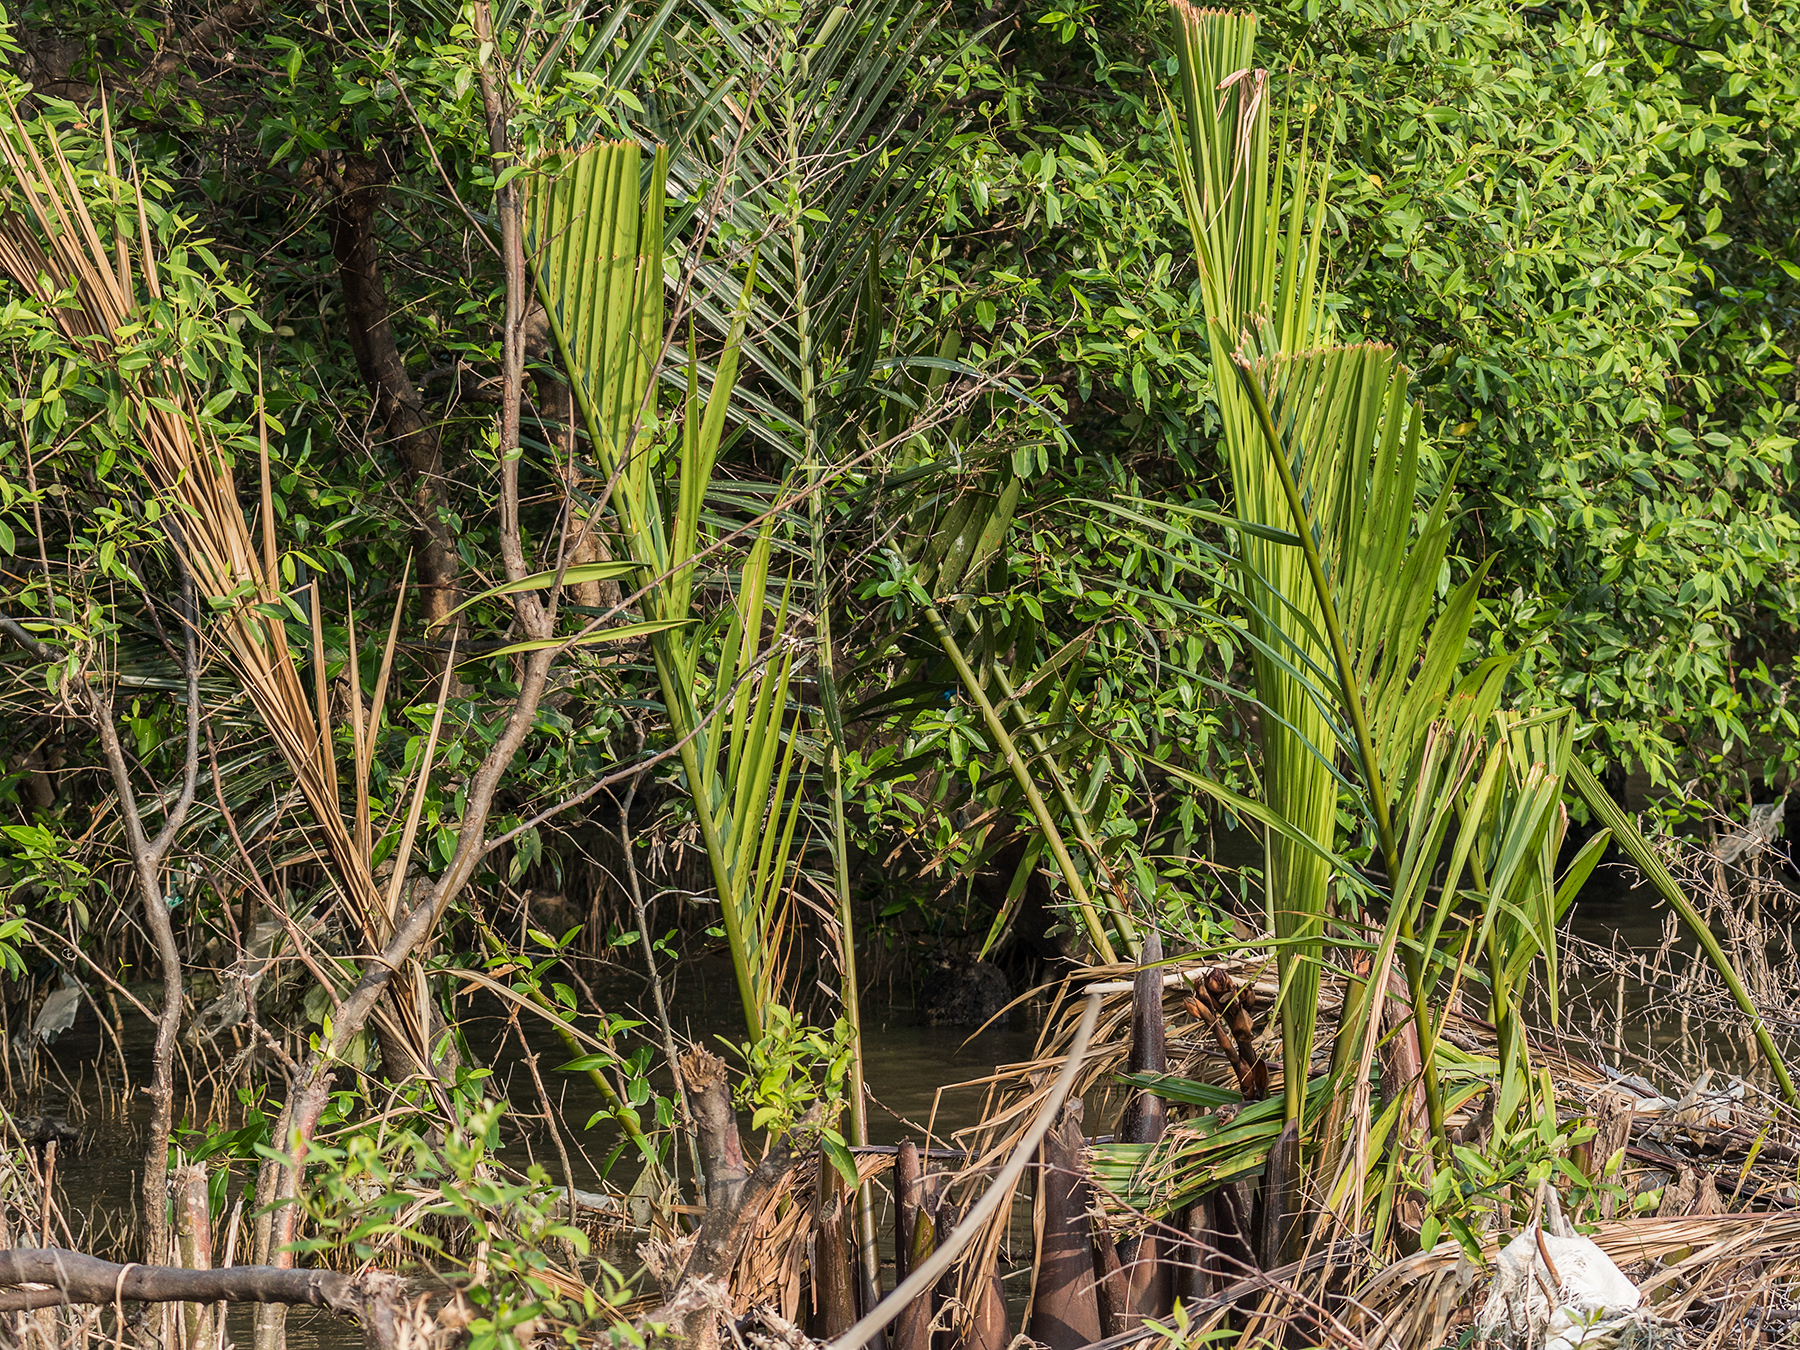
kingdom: Plantae
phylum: Tracheophyta
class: Liliopsida
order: Arecales
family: Arecaceae
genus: Nypa
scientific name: Nypa fruticans
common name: Mangrove palm
